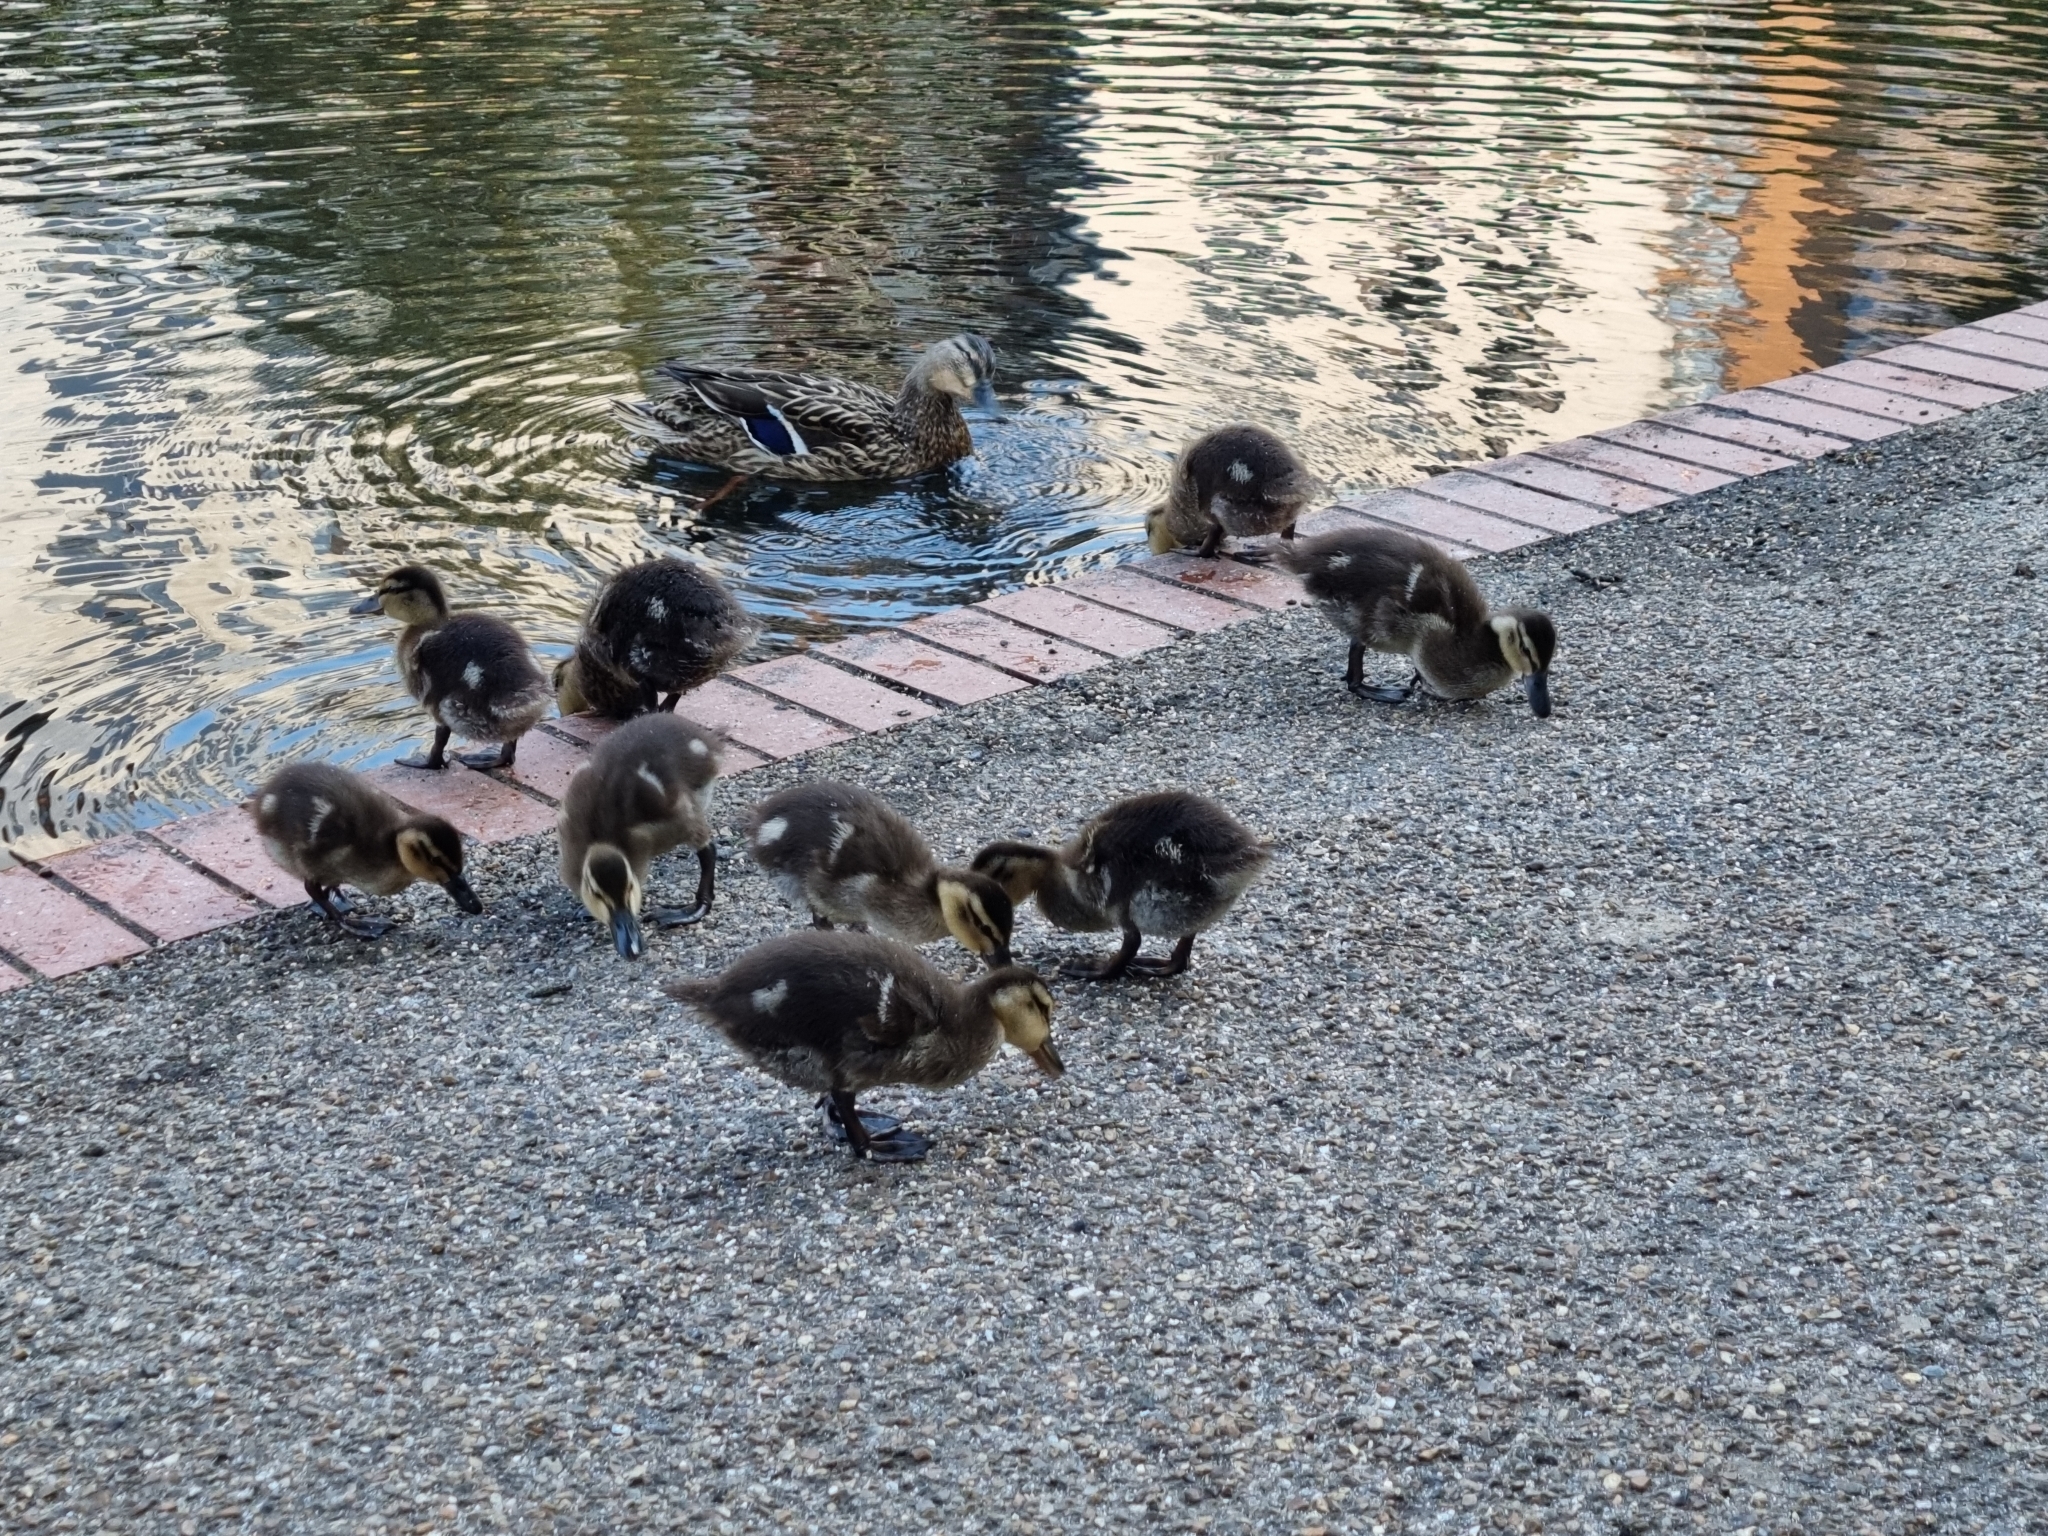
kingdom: Animalia
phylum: Chordata
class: Aves
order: Anseriformes
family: Anatidae
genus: Anas
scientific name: Anas platyrhynchos
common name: Mallard
